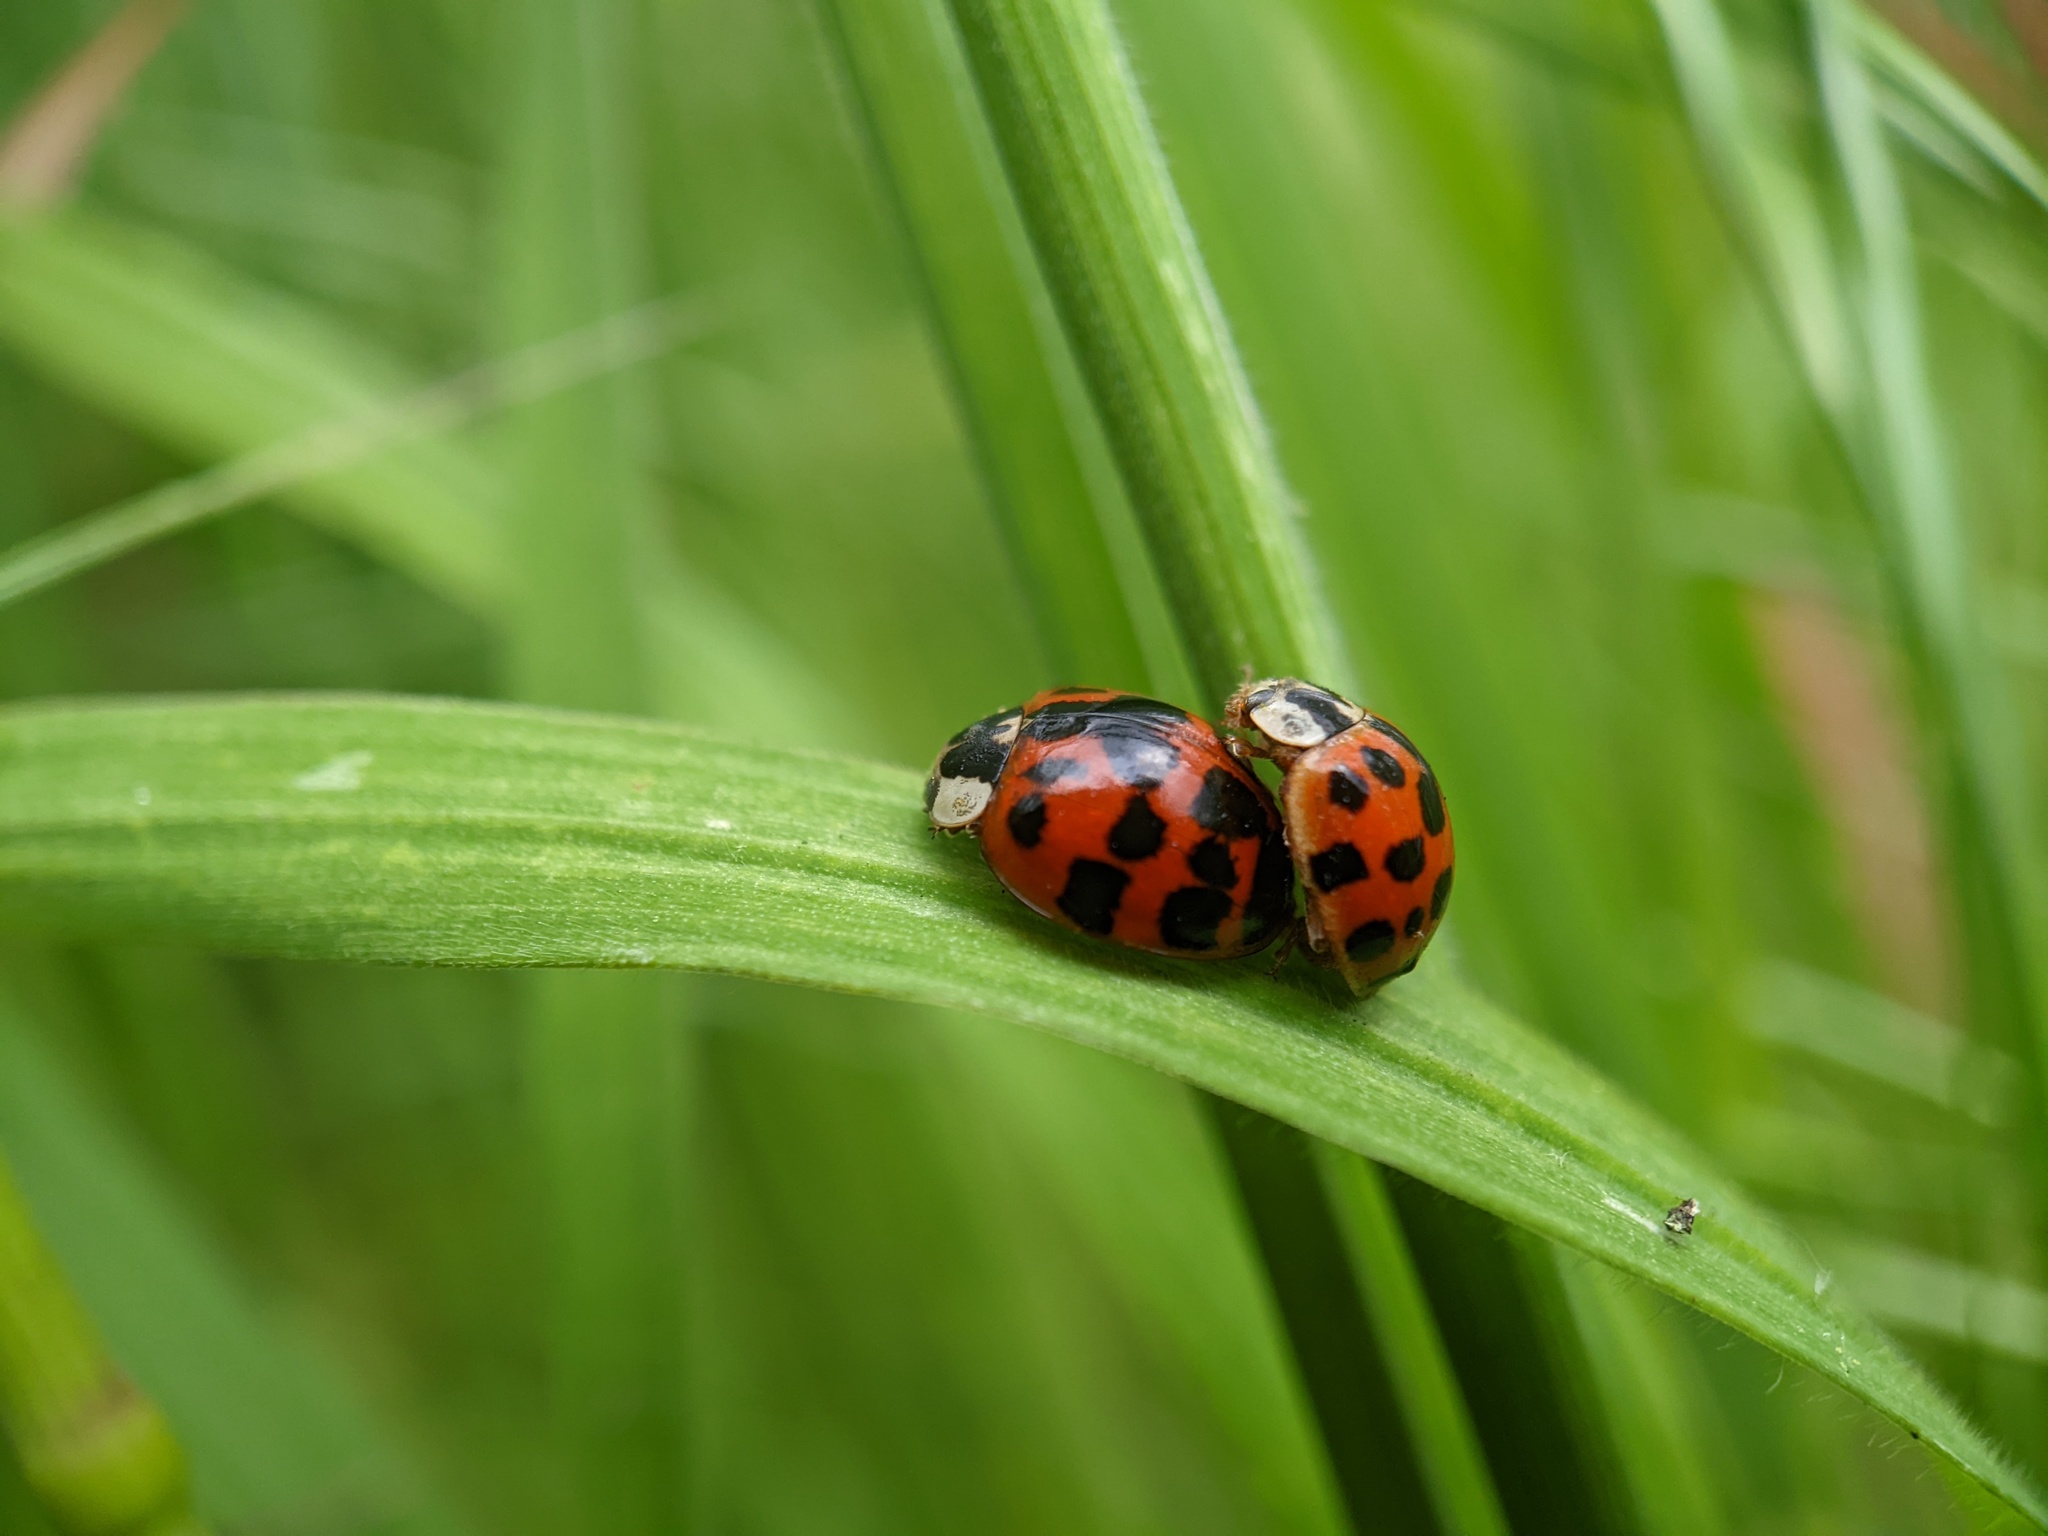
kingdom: Animalia
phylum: Arthropoda
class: Insecta
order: Coleoptera
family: Coccinellidae
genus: Harmonia
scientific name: Harmonia axyridis
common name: Harlequin ladybird
